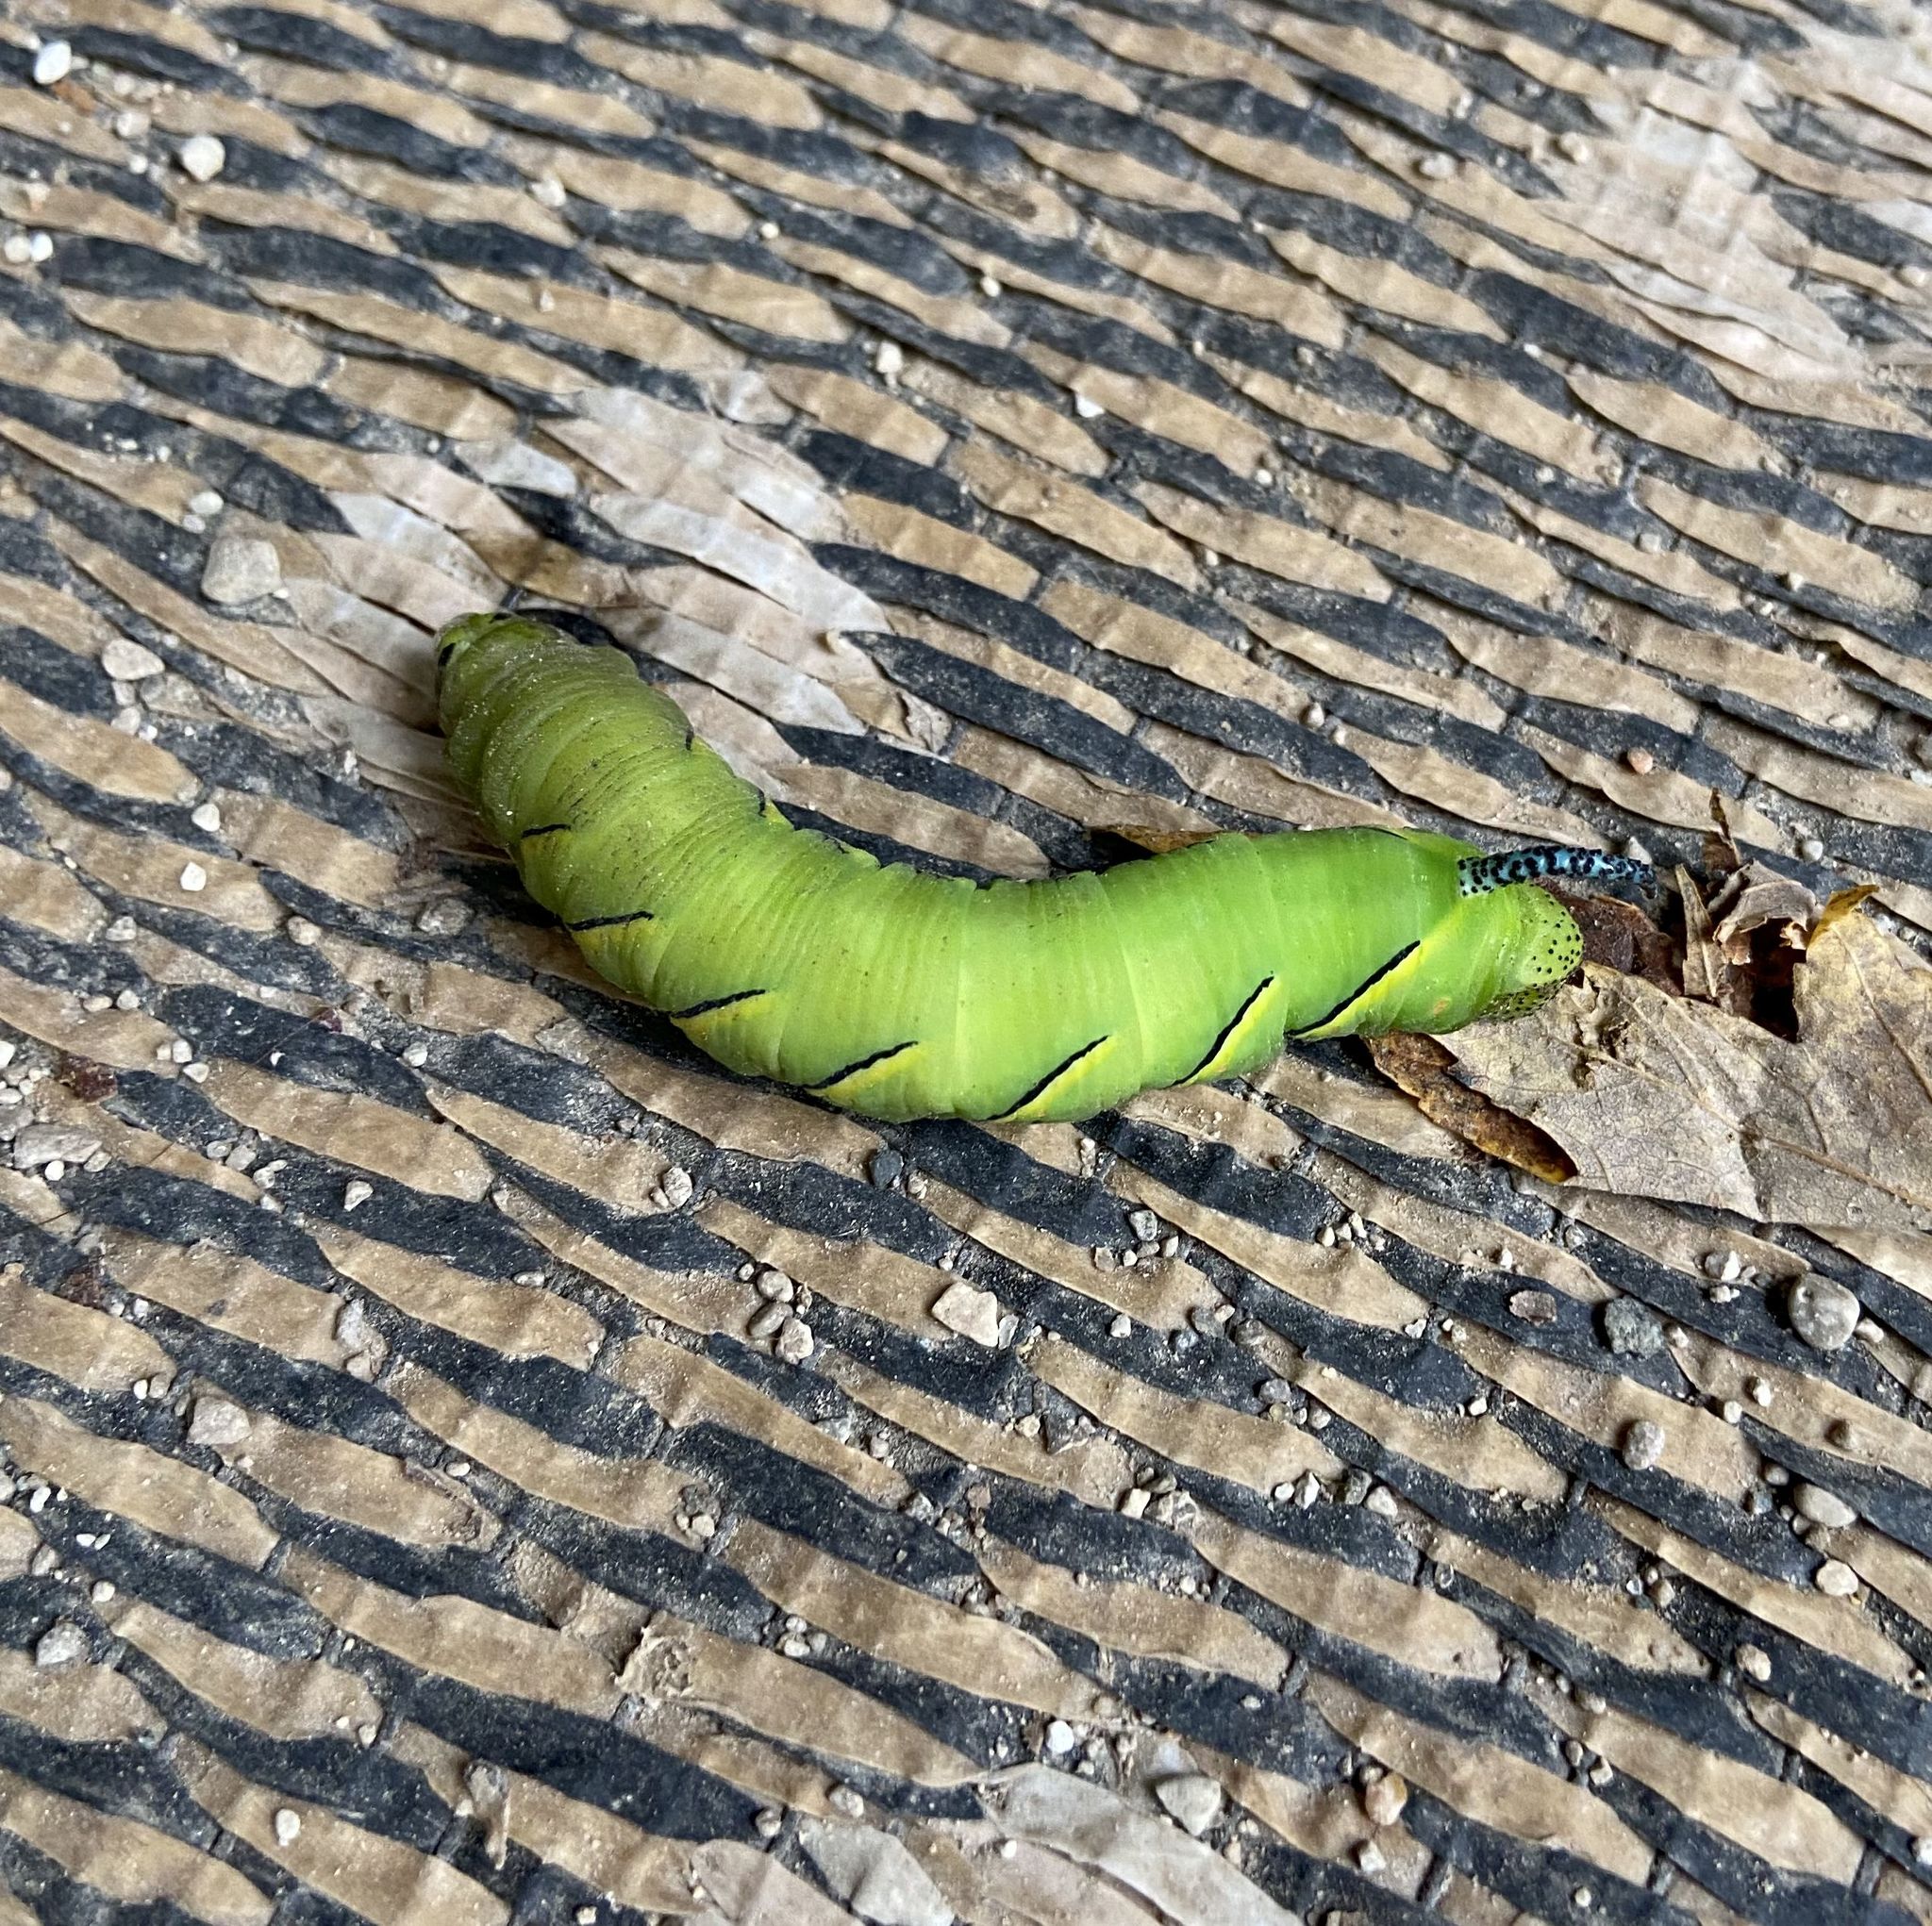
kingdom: Animalia
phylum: Arthropoda
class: Insecta
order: Lepidoptera
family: Sphingidae
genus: Sphinx
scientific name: Sphinx kalmiae
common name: Laurel sphinx
